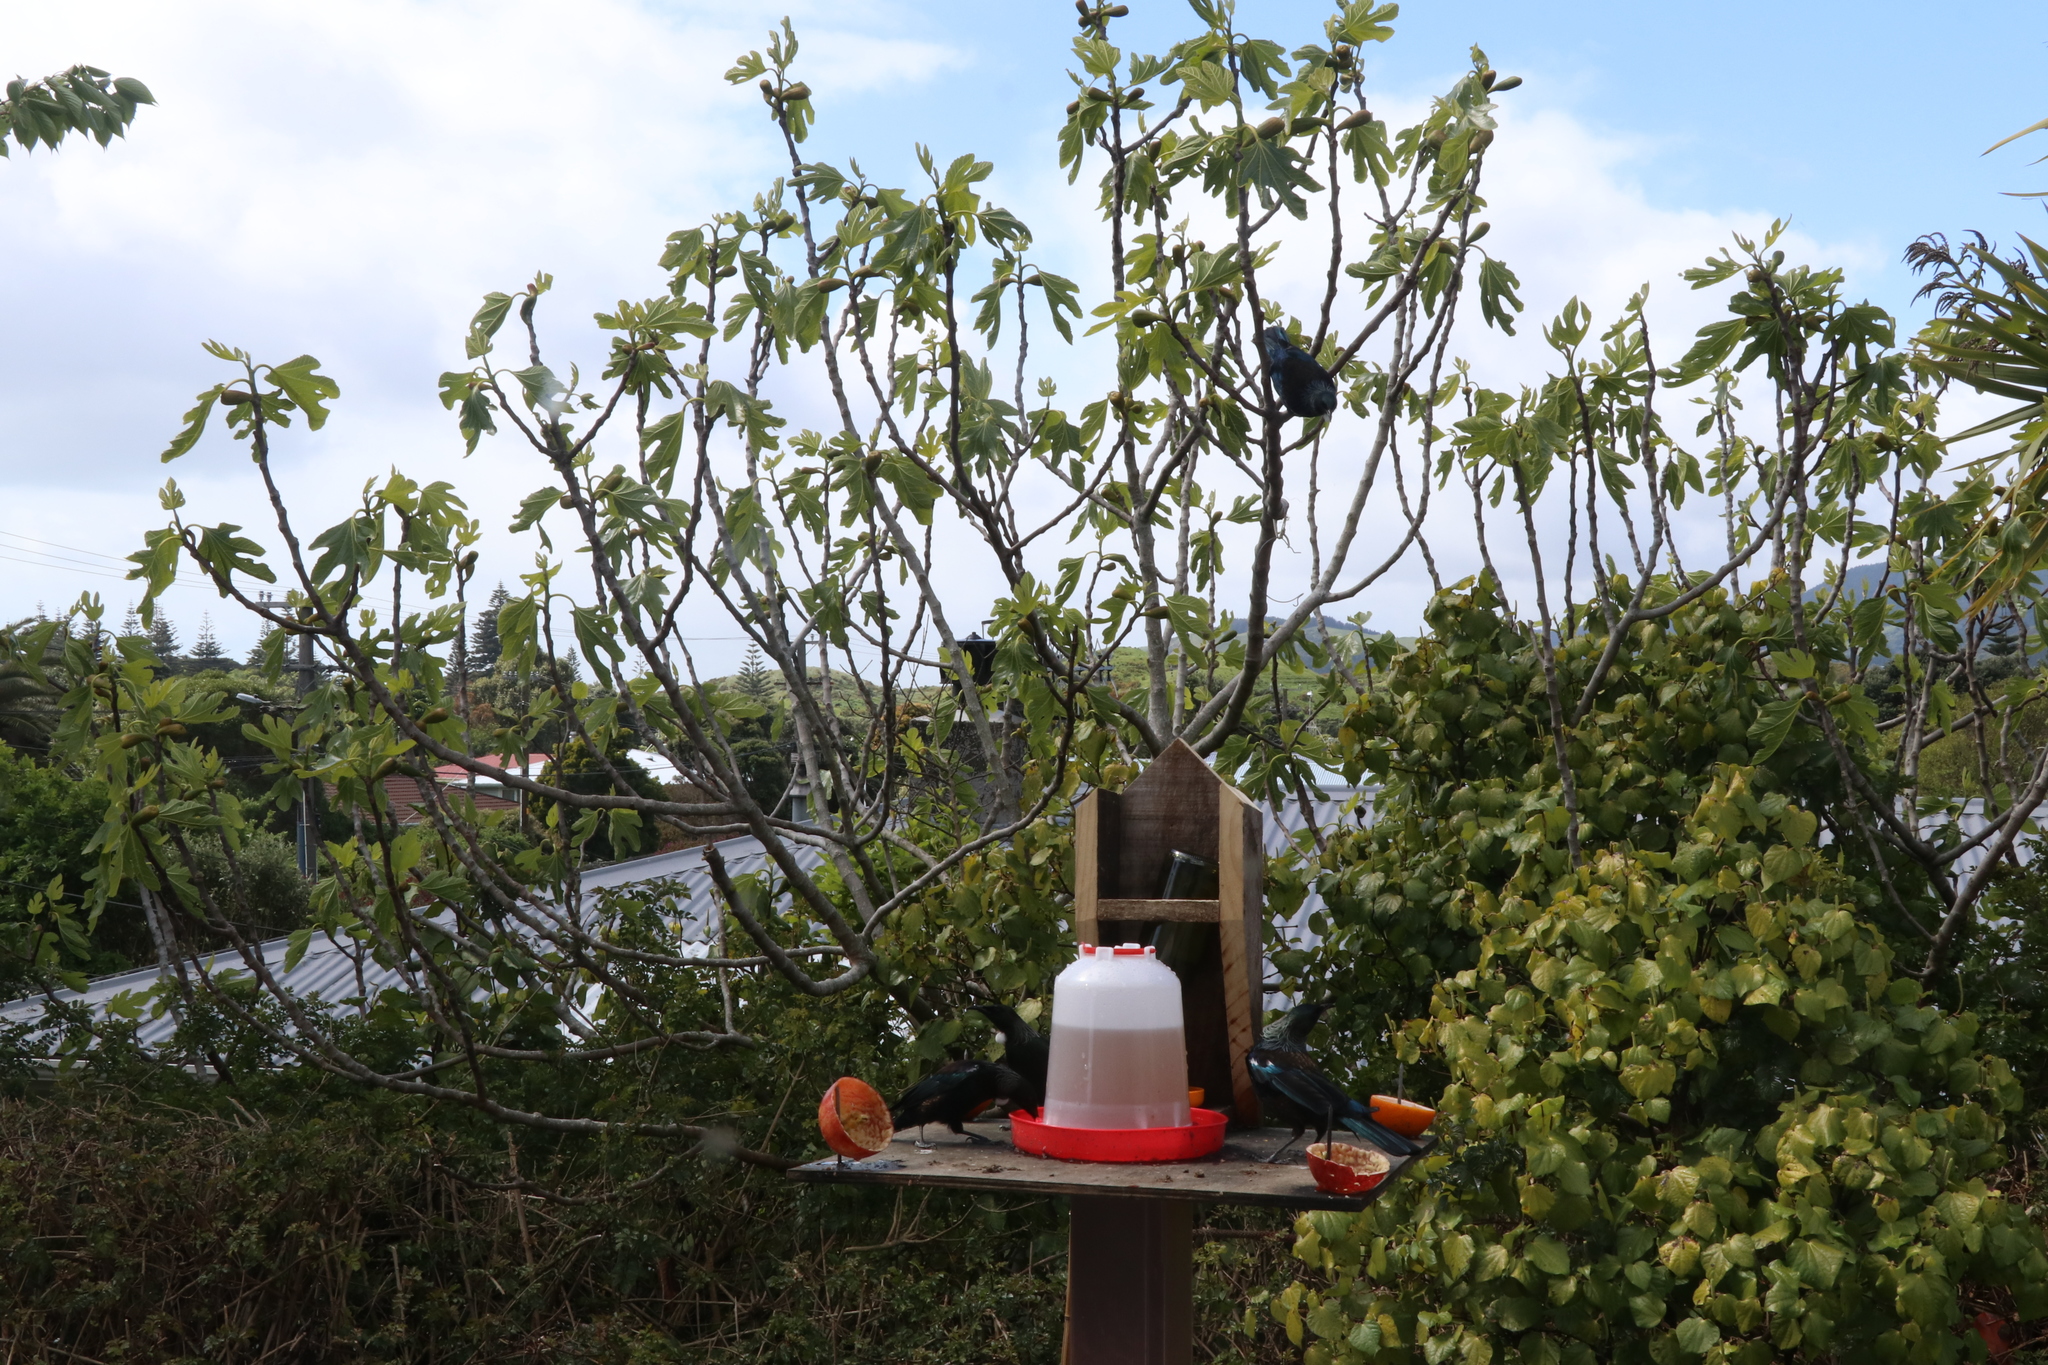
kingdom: Animalia
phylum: Chordata
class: Aves
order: Passeriformes
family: Meliphagidae
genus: Prosthemadera
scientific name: Prosthemadera novaeseelandiae
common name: Tui
